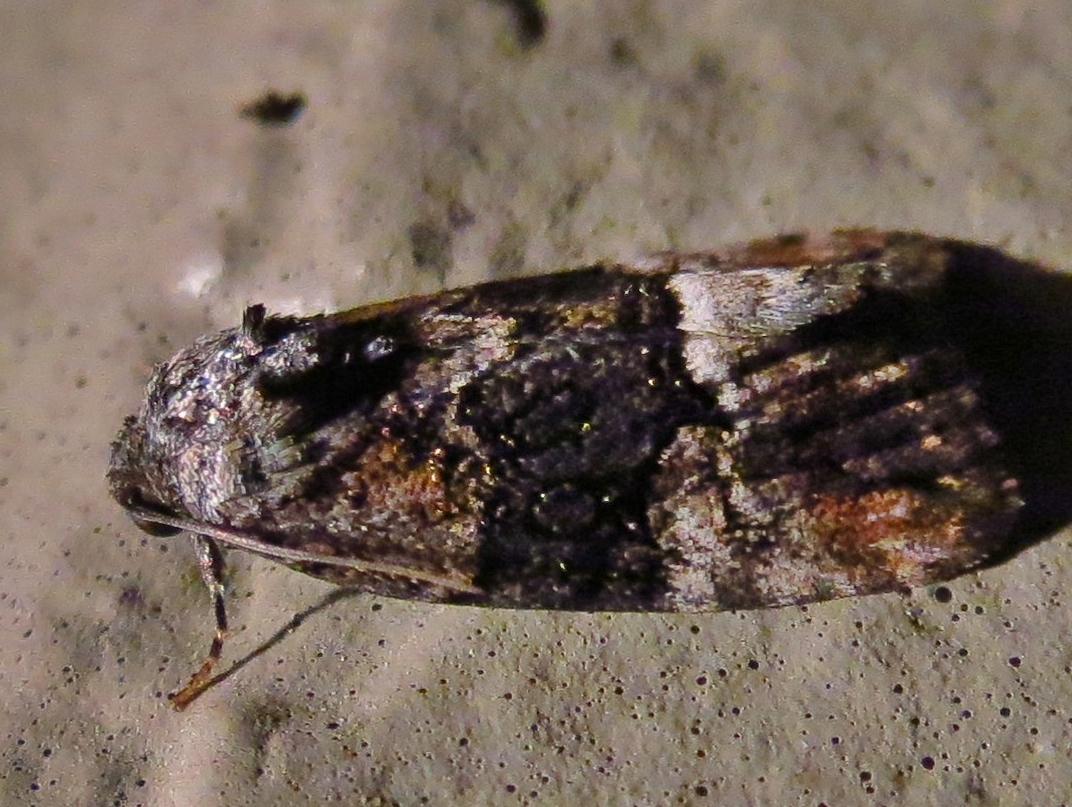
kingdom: Animalia
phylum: Arthropoda
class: Insecta
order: Lepidoptera
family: Noctuidae
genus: Elaphria
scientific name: Elaphria georgei
